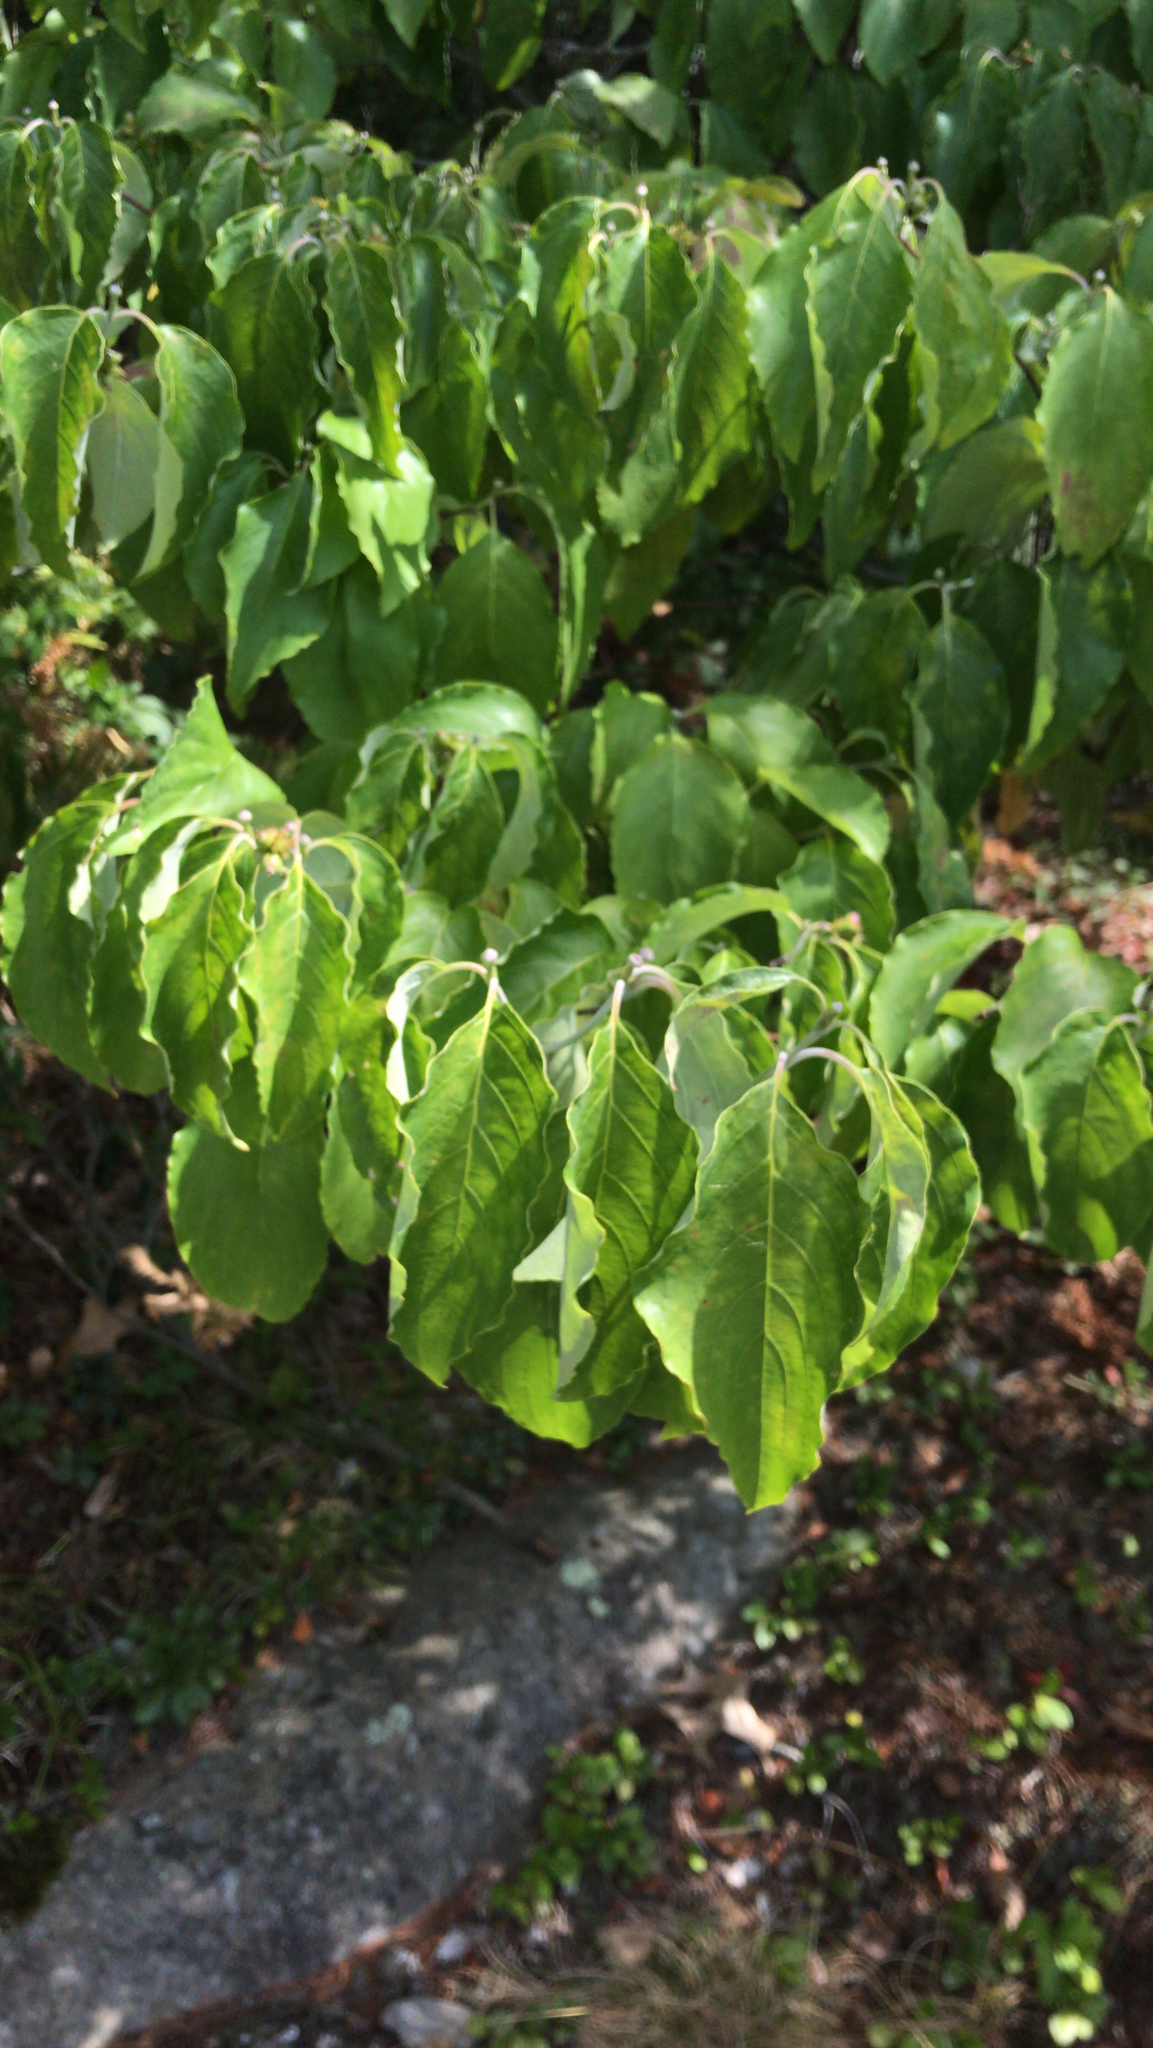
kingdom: Plantae
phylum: Tracheophyta
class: Magnoliopsida
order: Cornales
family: Cornaceae
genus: Cornus
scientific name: Cornus florida
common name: Flowering dogwood
